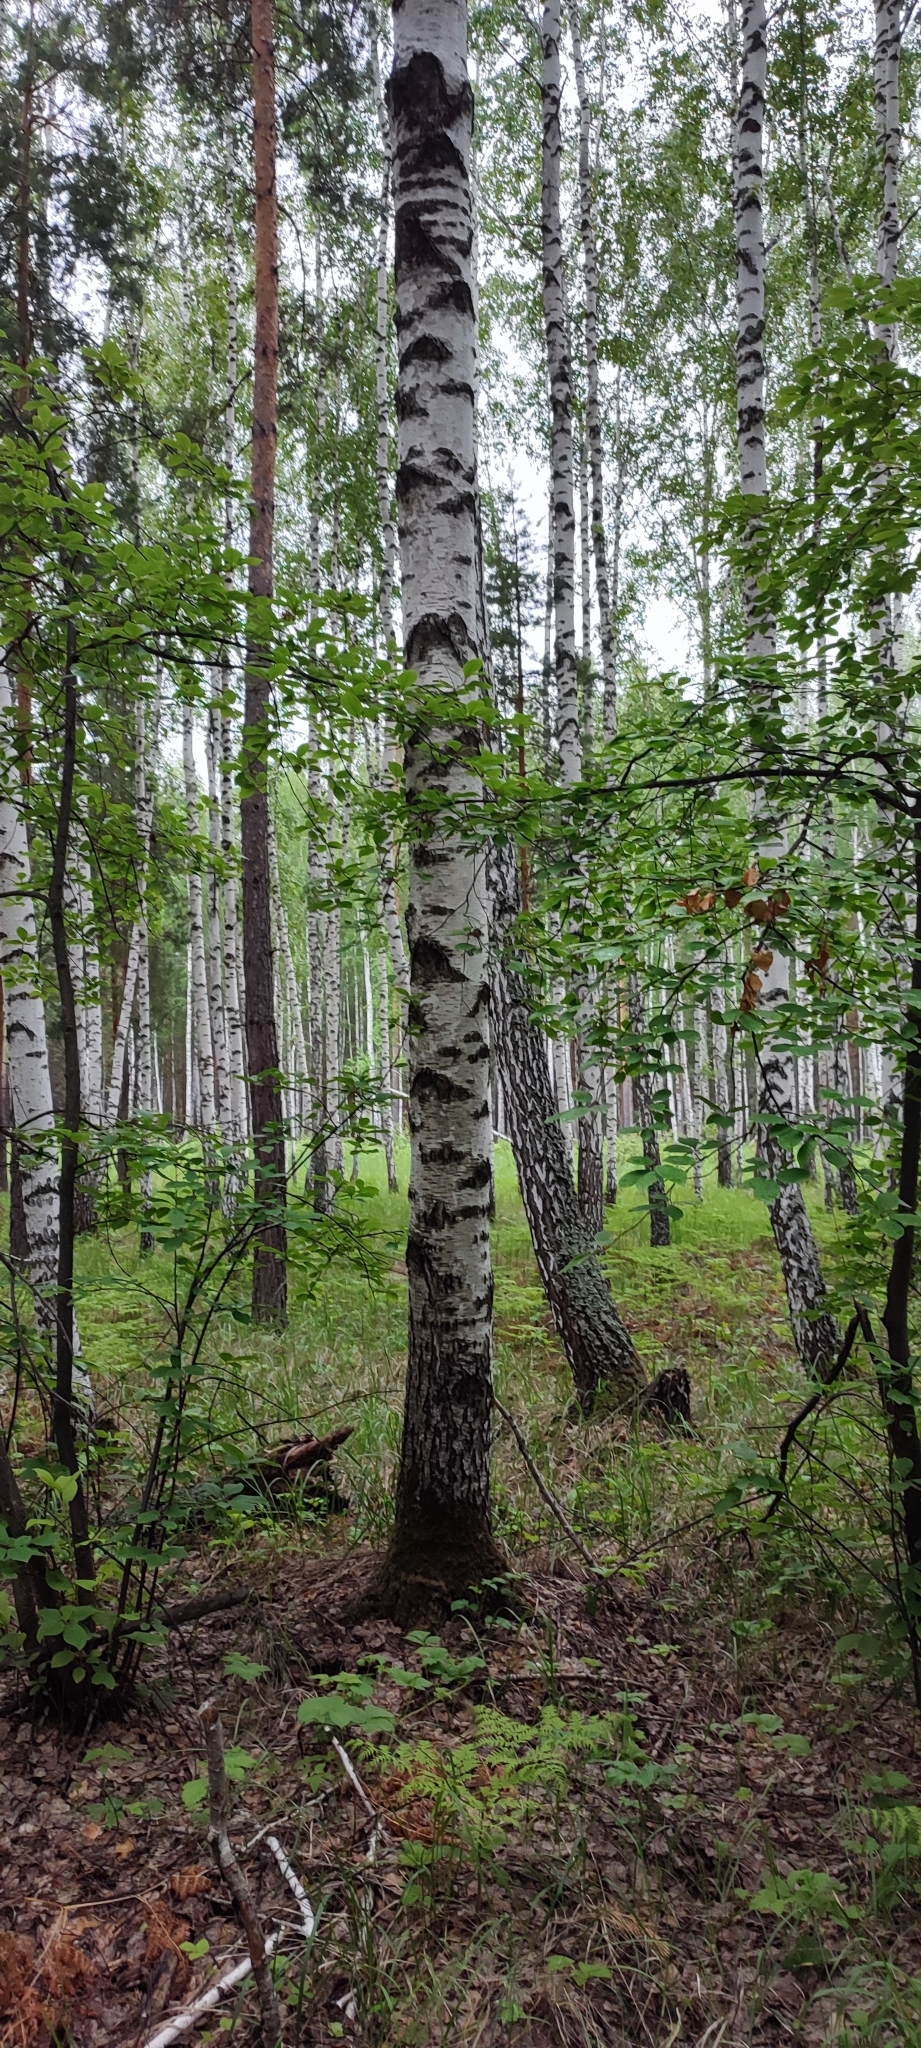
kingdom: Plantae
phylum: Tracheophyta
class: Magnoliopsida
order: Fagales
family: Betulaceae
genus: Betula
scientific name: Betula pendula
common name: Silver birch
